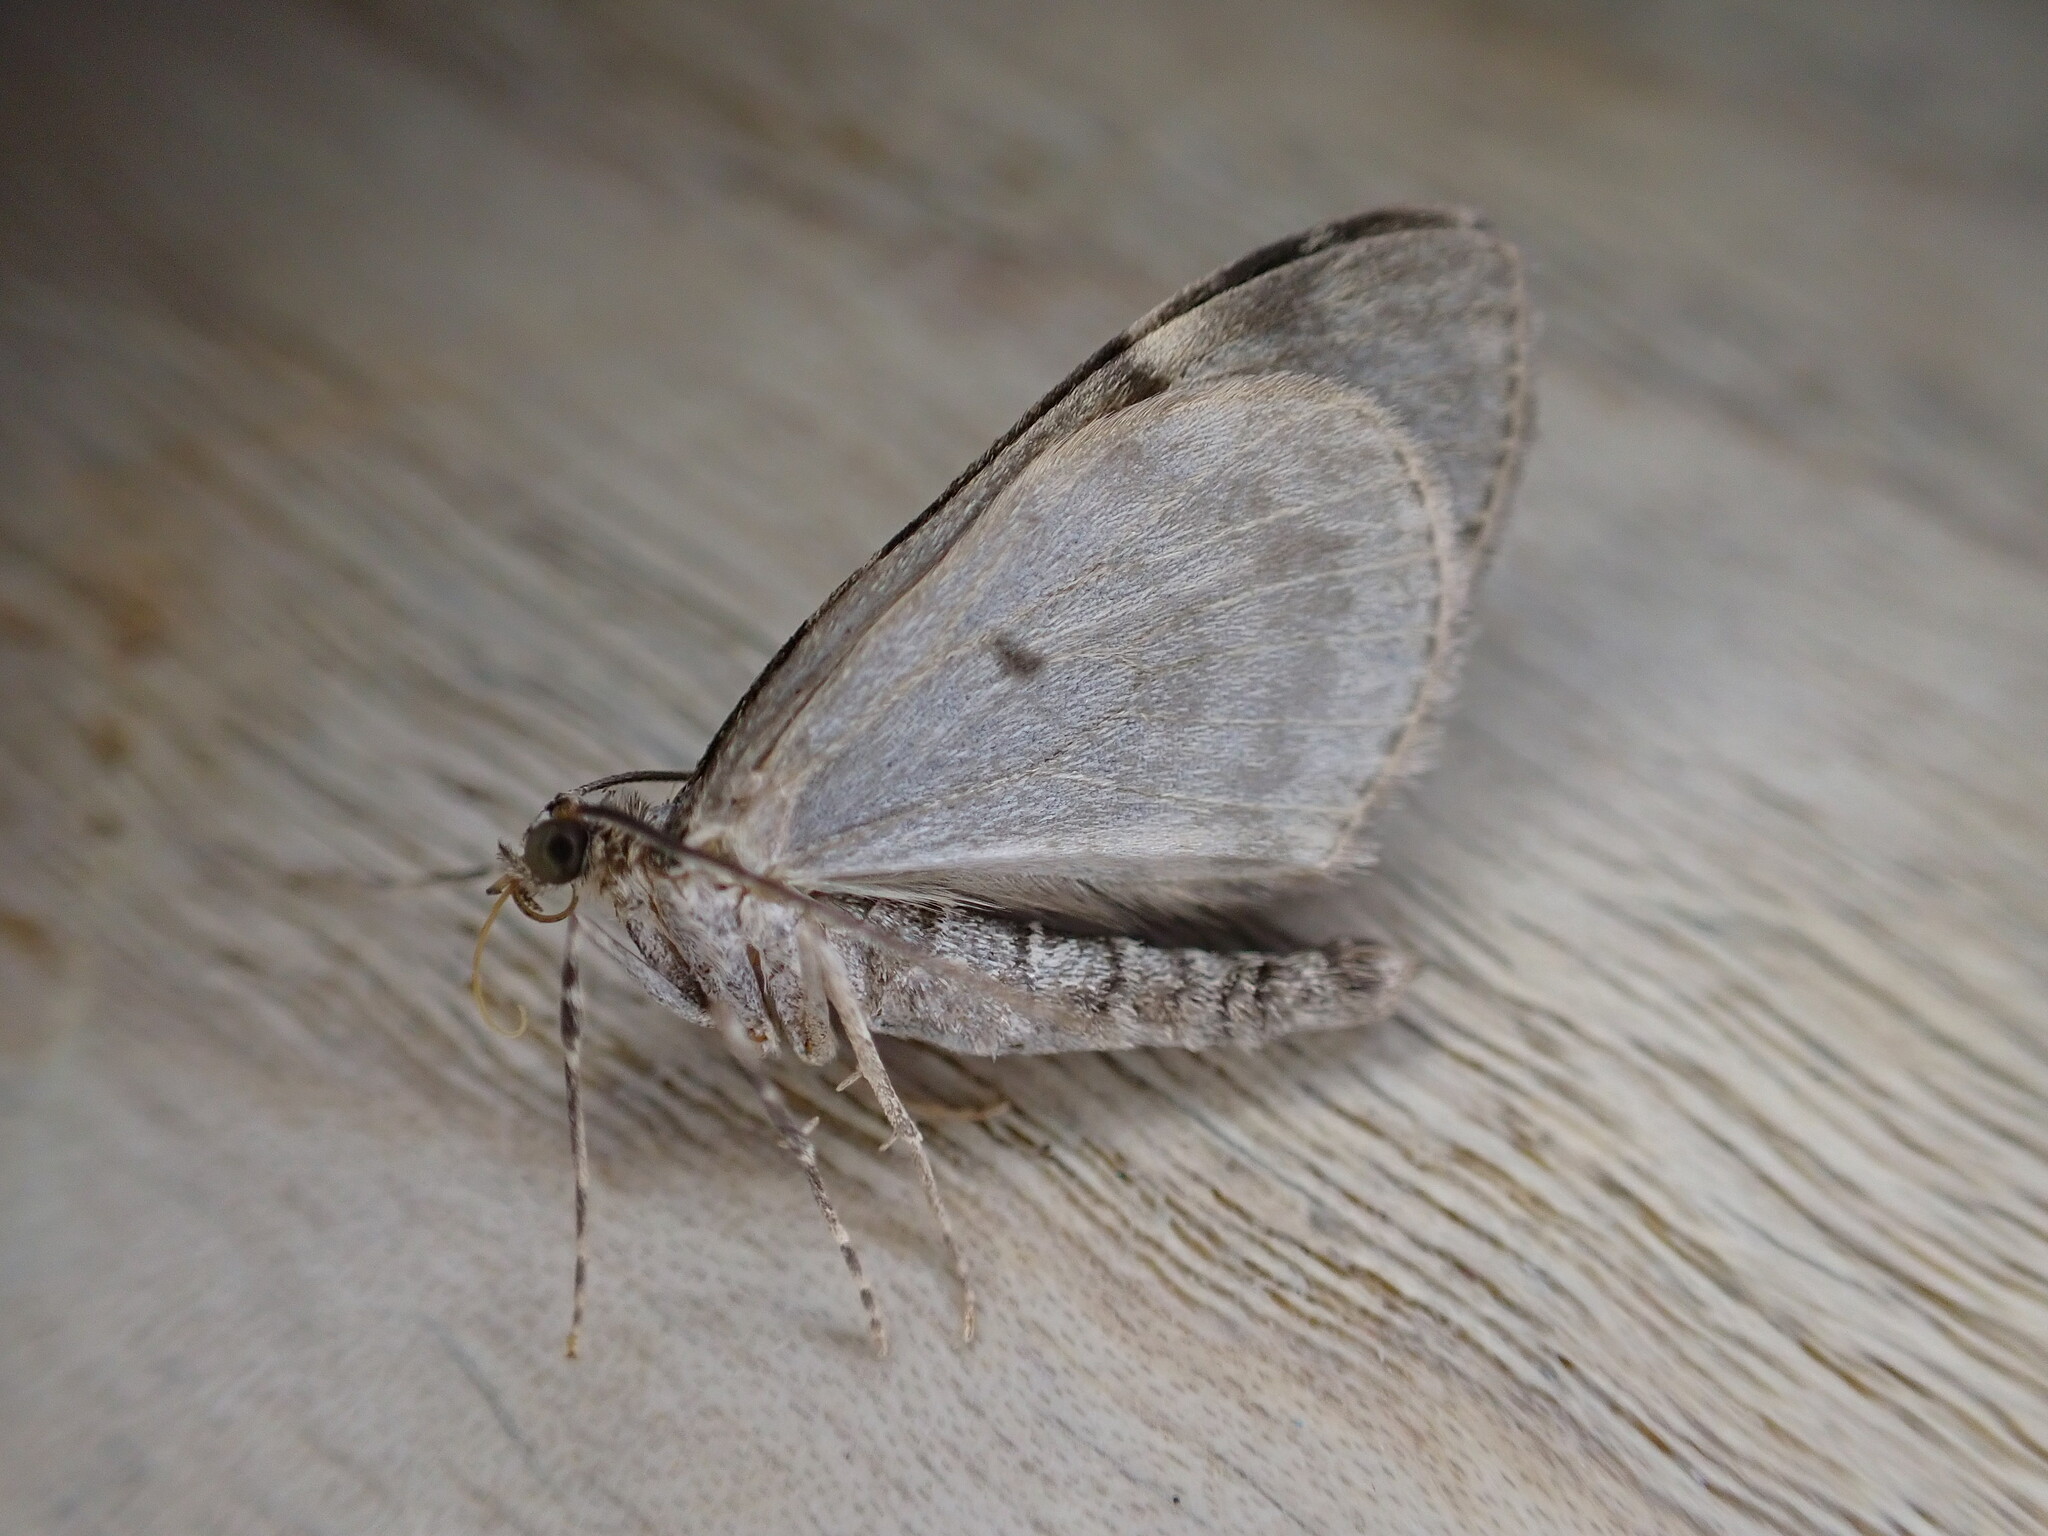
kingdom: Animalia
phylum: Arthropoda
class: Insecta
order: Lepidoptera
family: Geometridae
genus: Thera
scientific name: Thera britannica
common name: Spruce carpet
